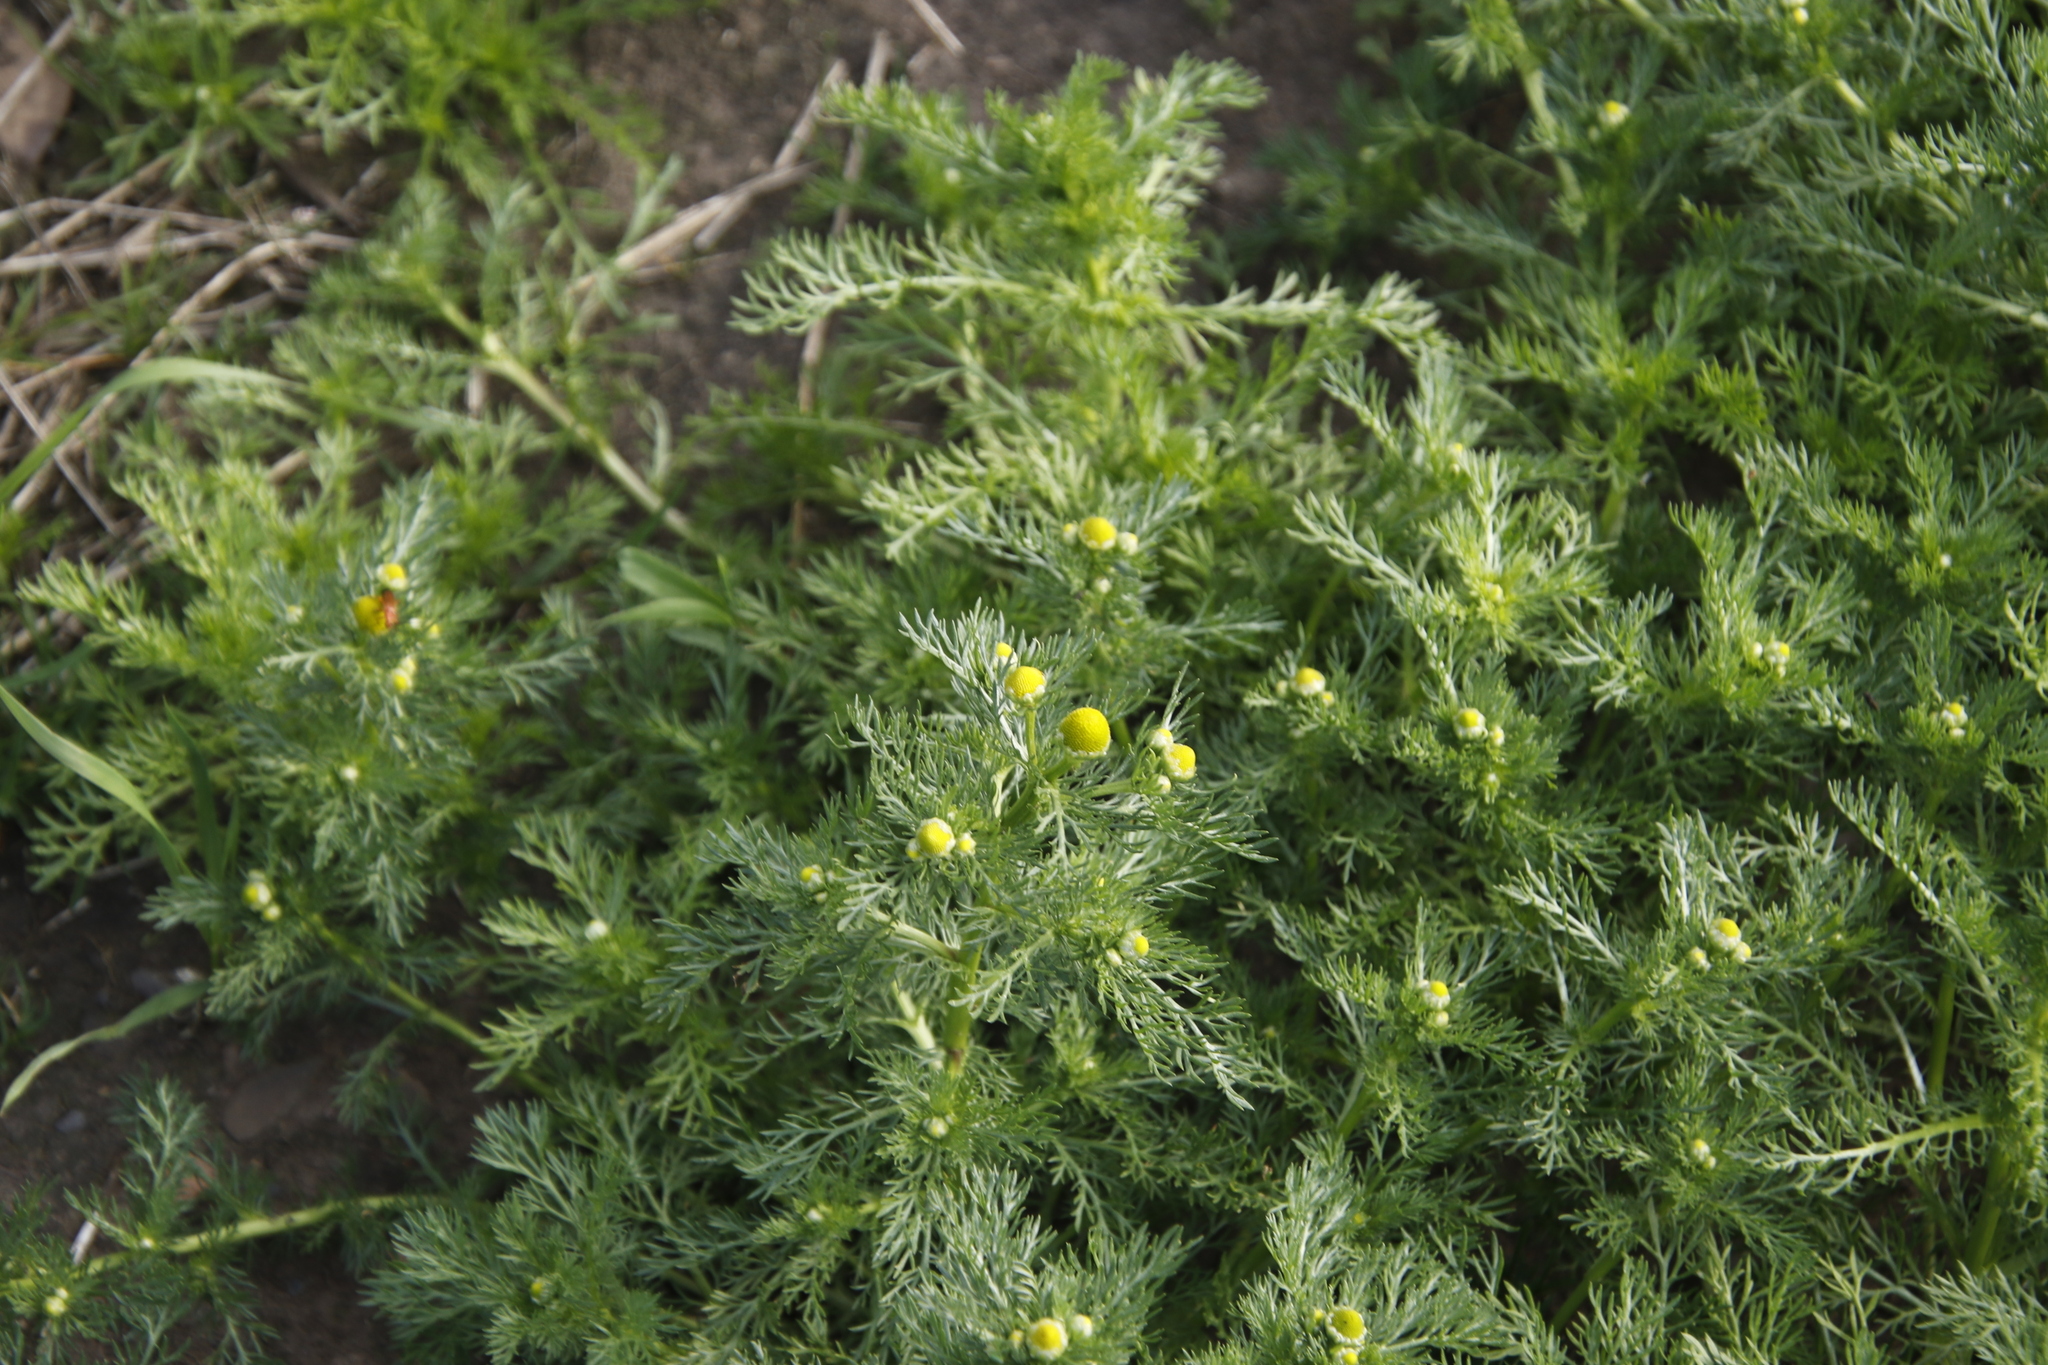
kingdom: Plantae
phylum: Tracheophyta
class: Magnoliopsida
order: Asterales
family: Asteraceae
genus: Matricaria
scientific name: Matricaria discoidea
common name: Disc mayweed
